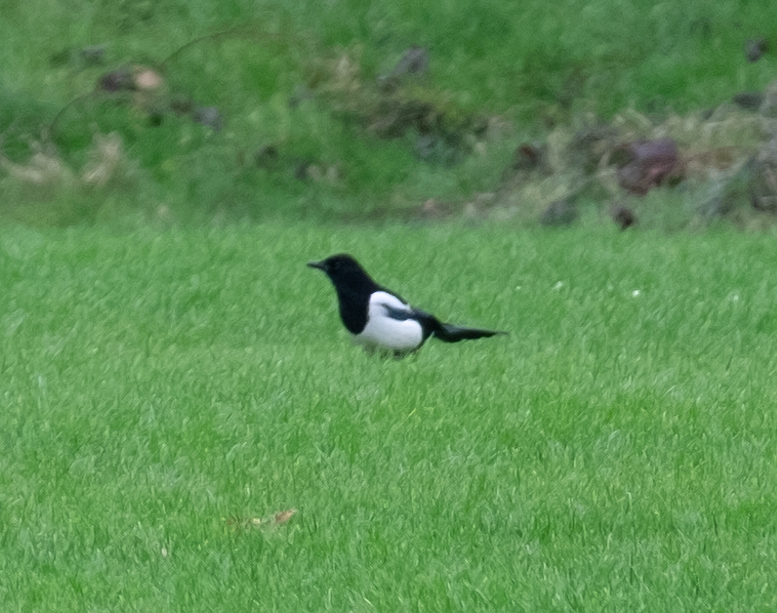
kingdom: Animalia
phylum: Chordata
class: Aves
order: Passeriformes
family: Corvidae
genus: Pica
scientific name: Pica pica
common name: Eurasian magpie
